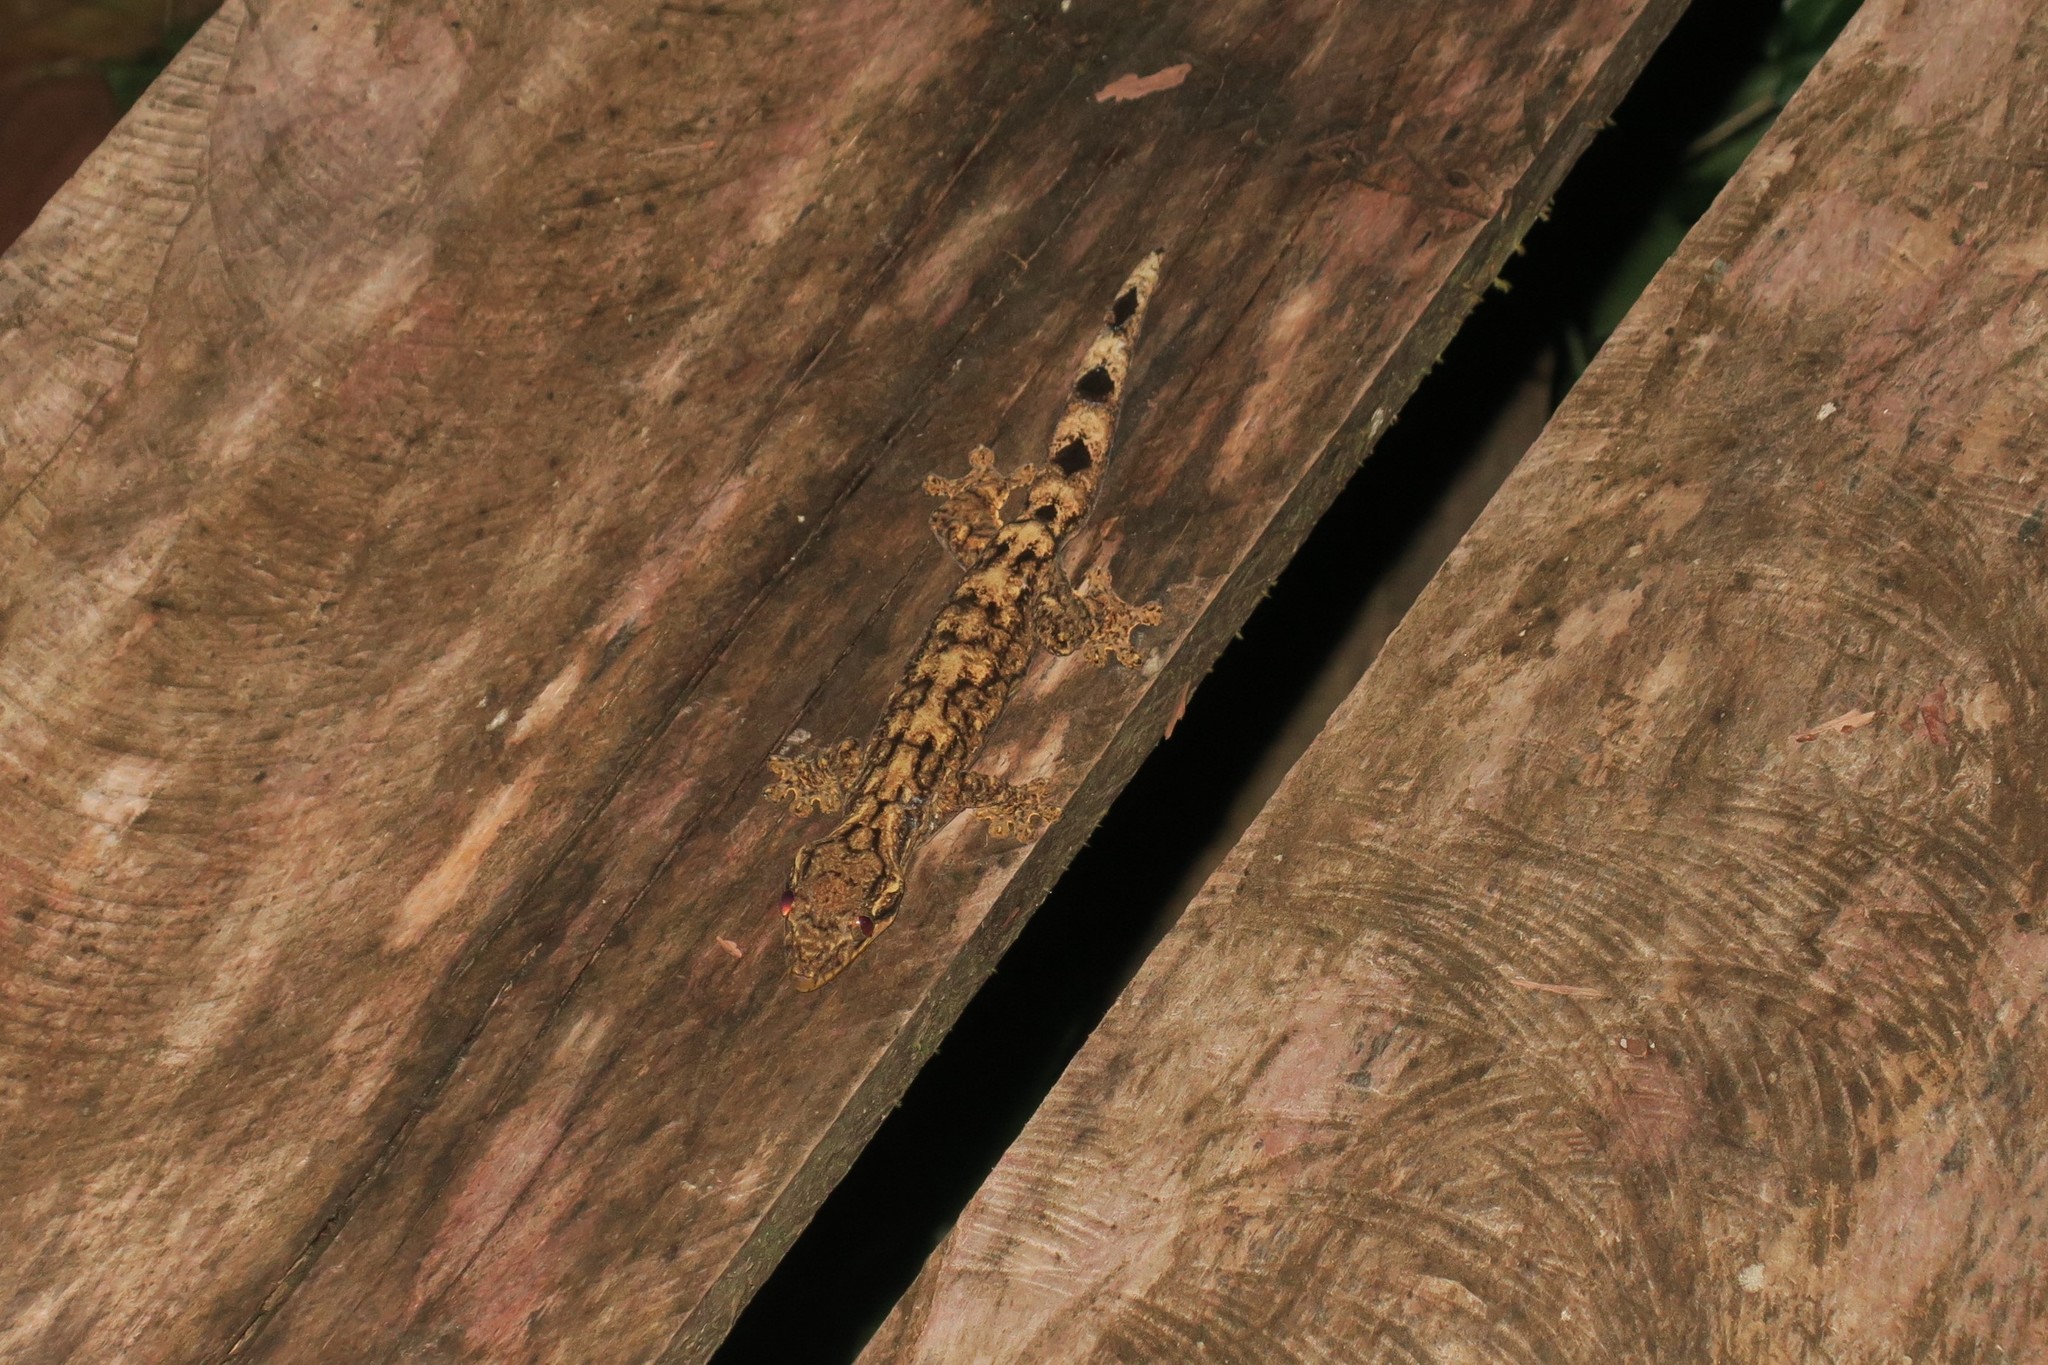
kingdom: Animalia
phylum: Chordata
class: Squamata
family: Phyllodactylidae
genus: Thecadactylus
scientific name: Thecadactylus solimoensis
